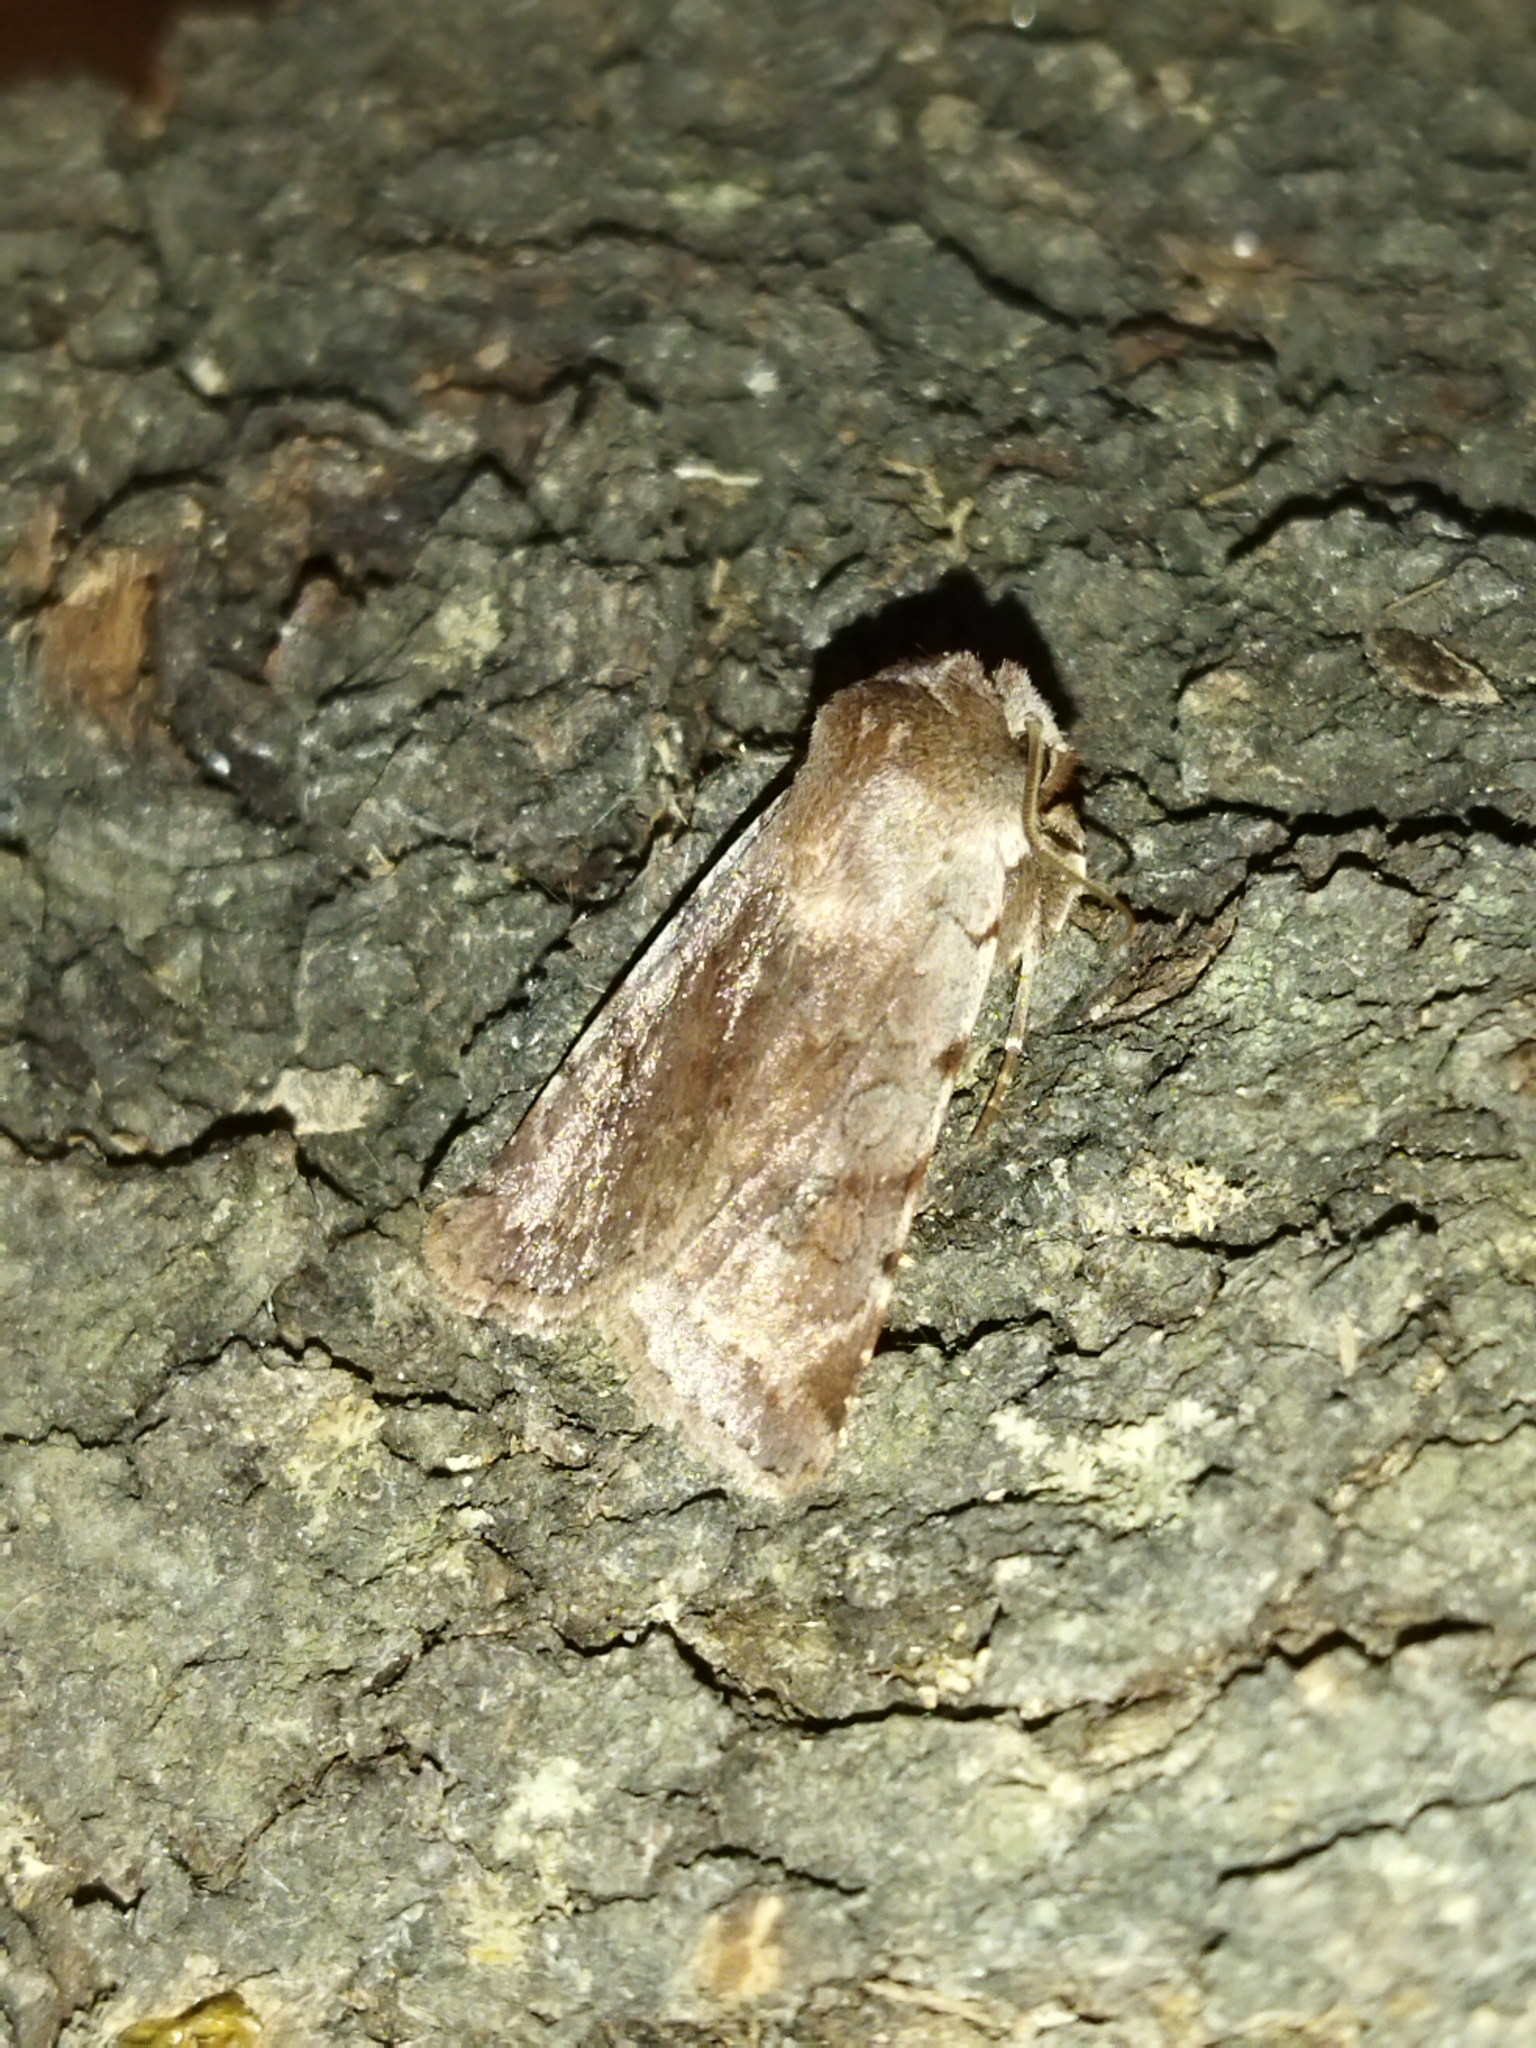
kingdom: Animalia
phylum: Arthropoda
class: Insecta
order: Lepidoptera
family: Noctuidae
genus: Cerastis
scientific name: Cerastis rubricosa
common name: Red chestnut
